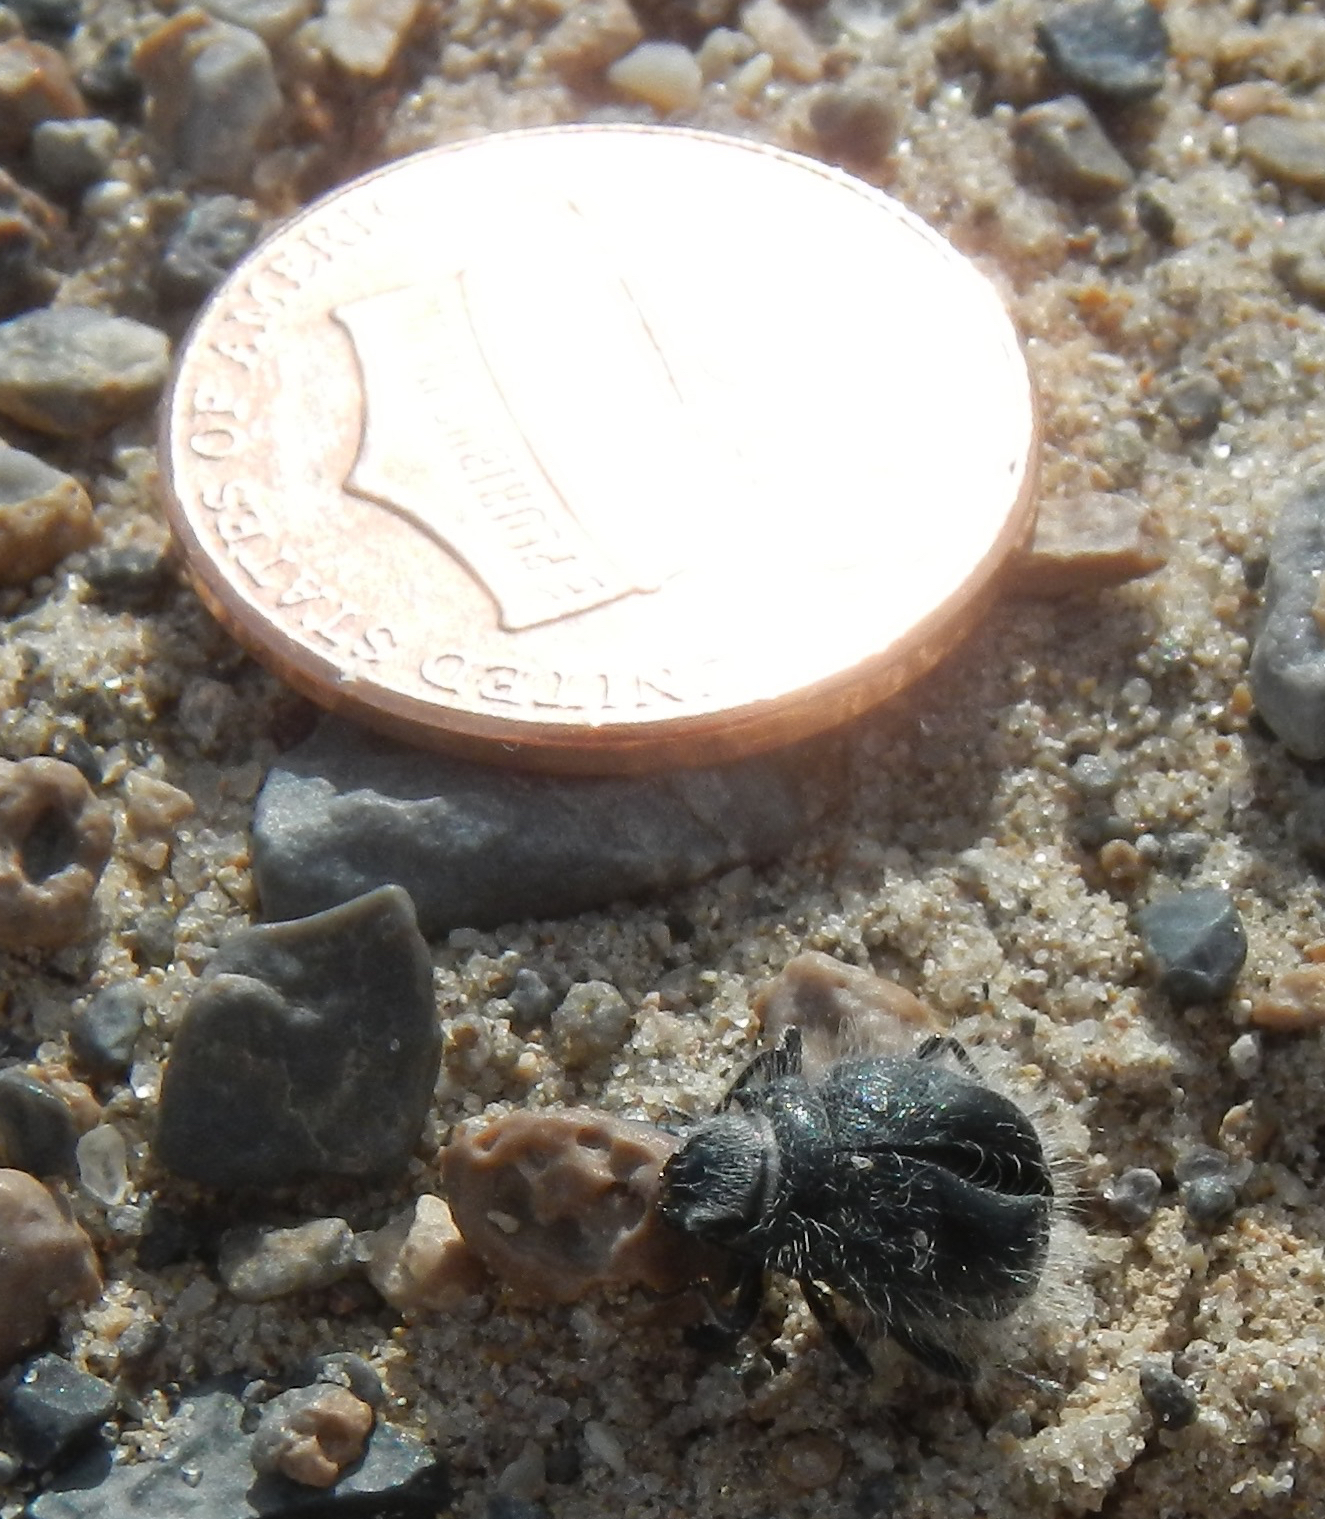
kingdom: Animalia
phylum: Arthropoda
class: Insecta
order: Coleoptera
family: Tenebrionidae
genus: Edrotes
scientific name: Edrotes ventricosus
